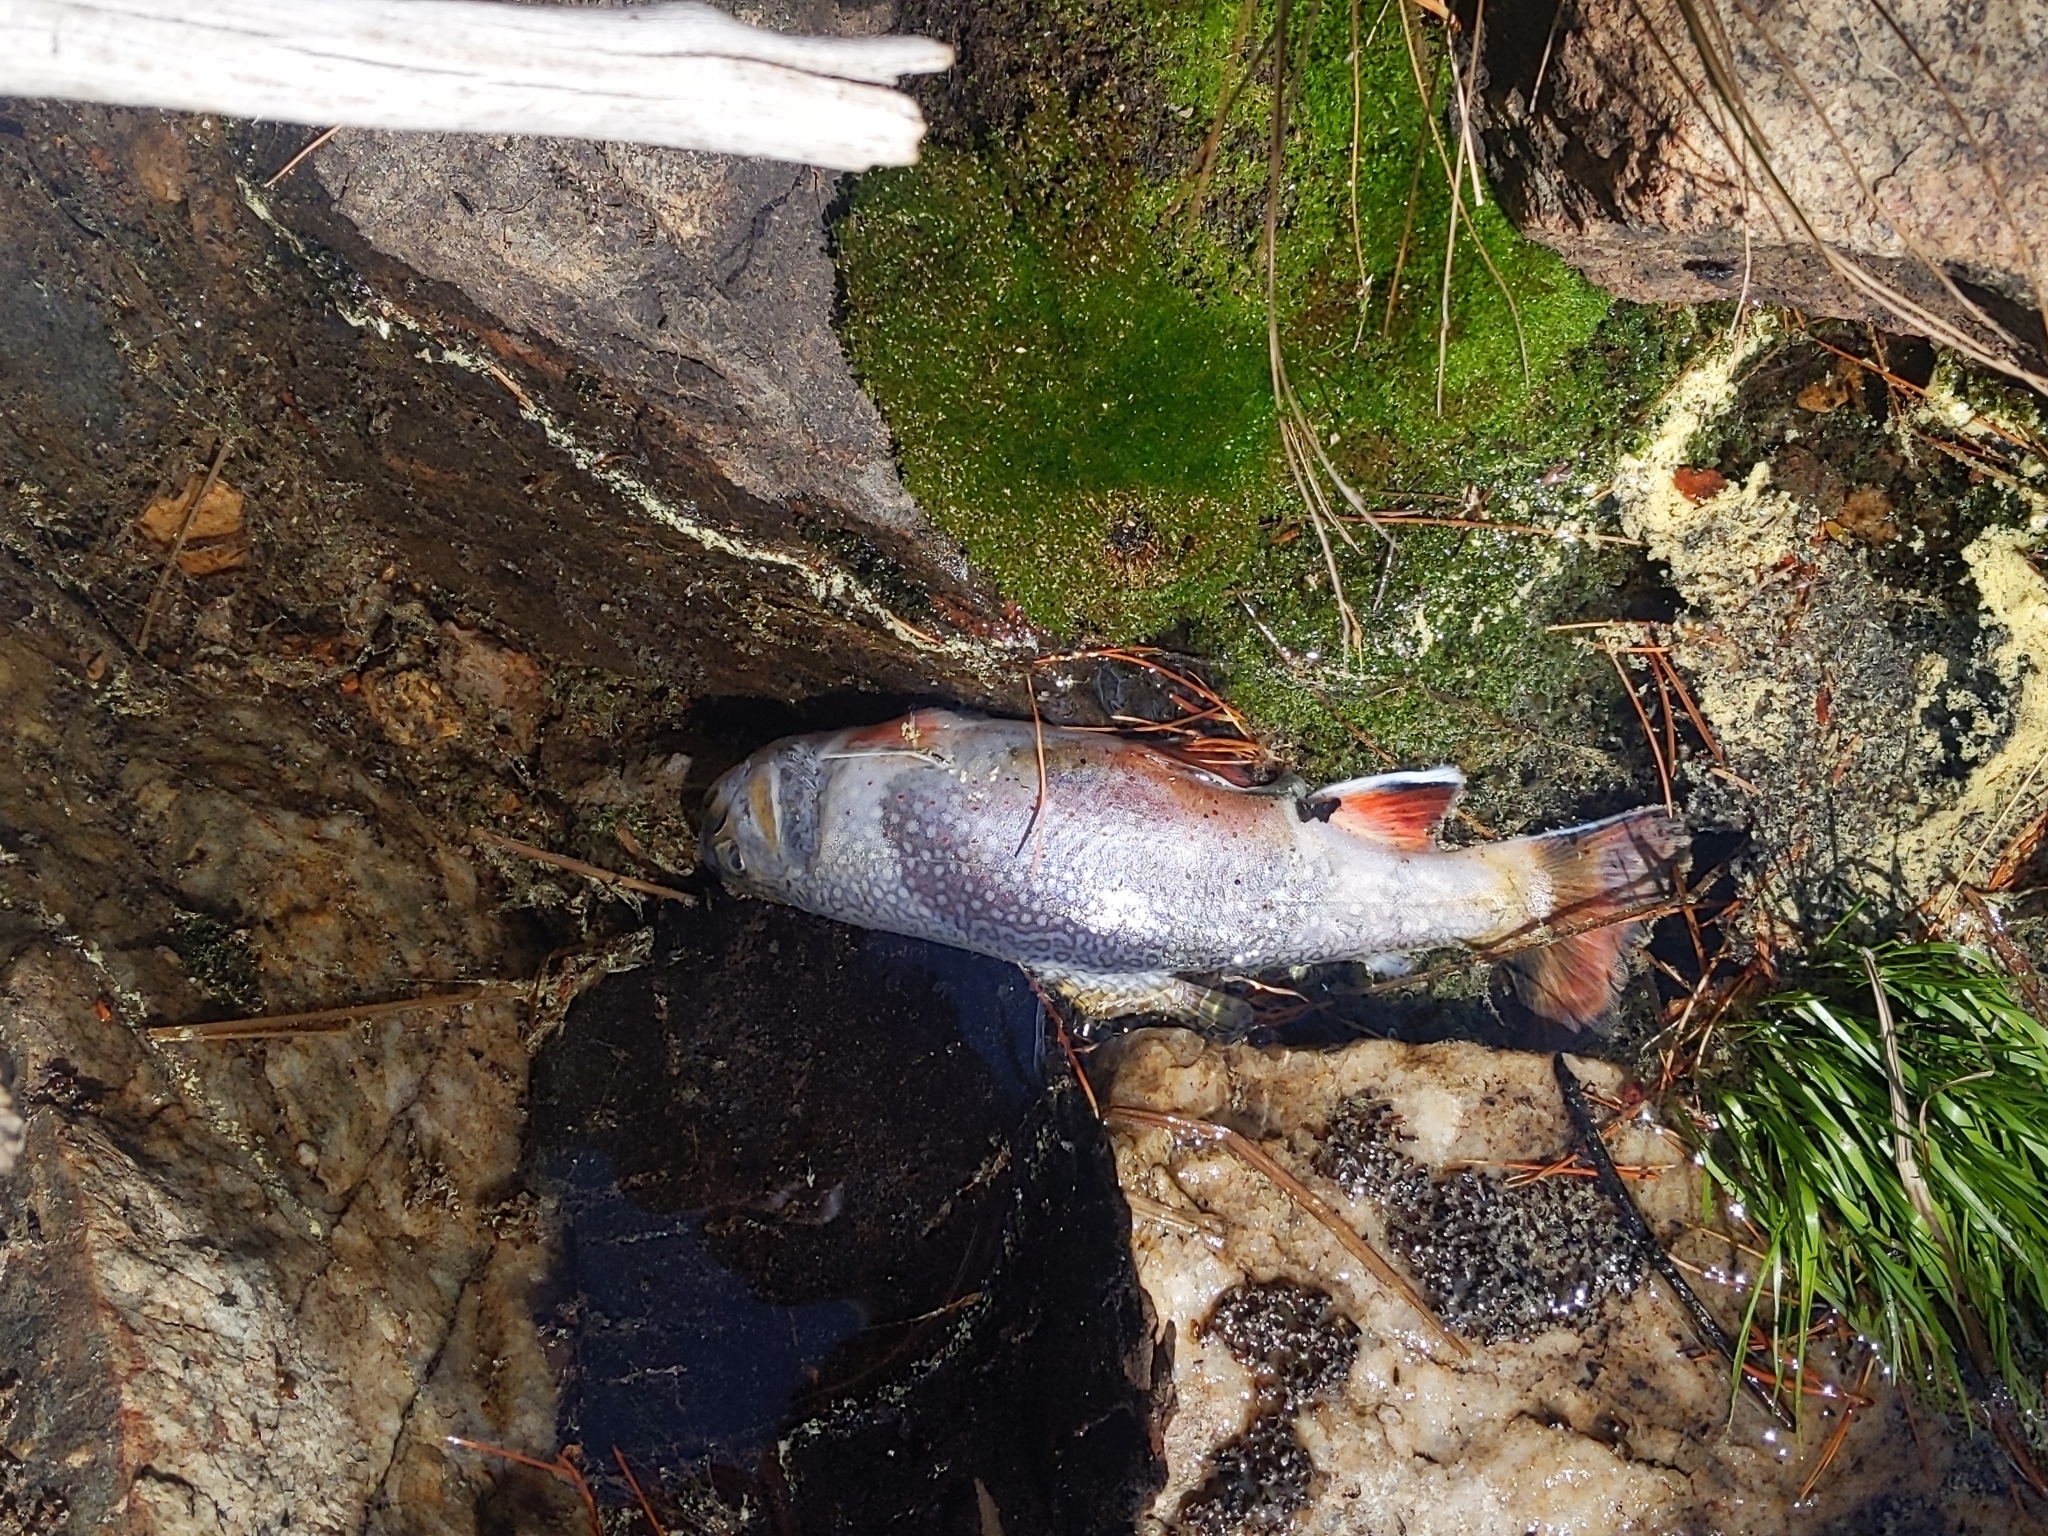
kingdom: Animalia
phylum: Chordata
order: Salmoniformes
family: Salmonidae
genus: Salvelinus
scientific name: Salvelinus fontinalis
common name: Brook trout
